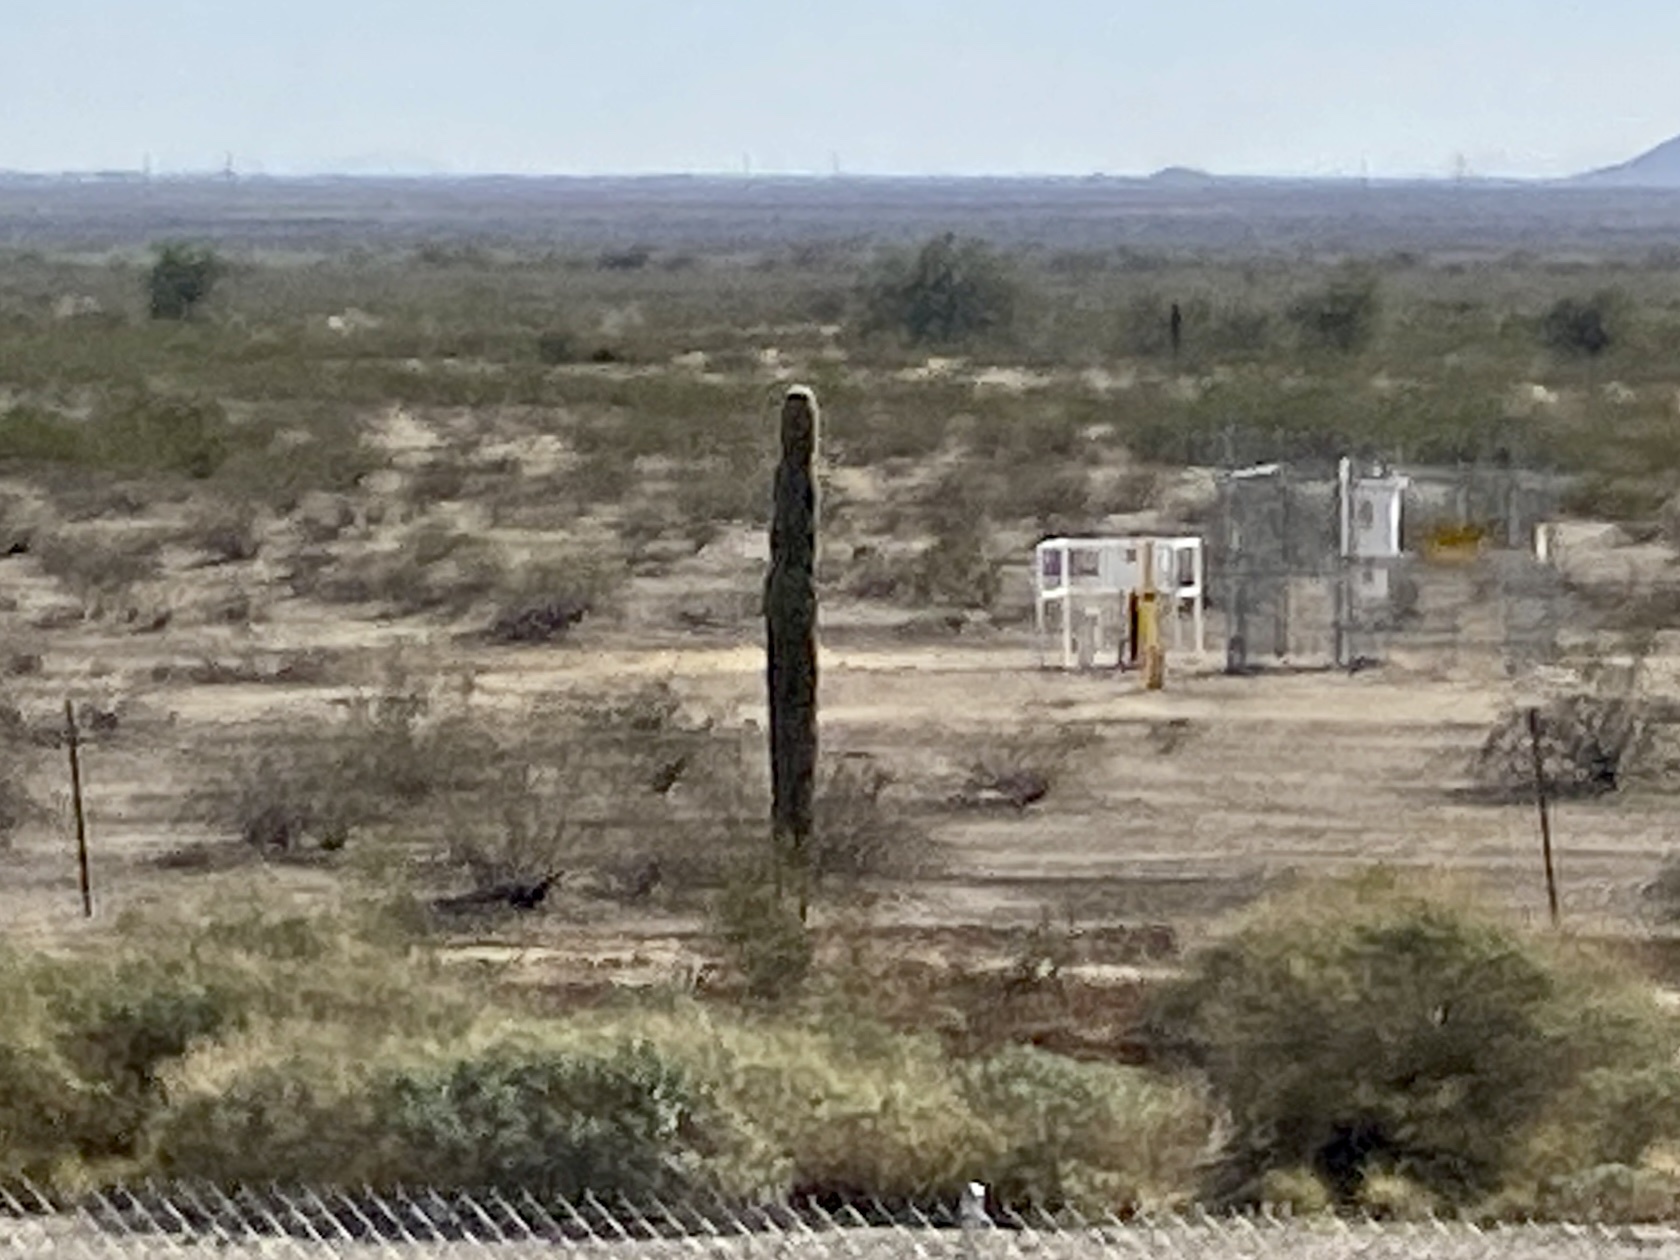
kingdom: Plantae
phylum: Tracheophyta
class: Magnoliopsida
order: Caryophyllales
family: Cactaceae
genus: Carnegiea
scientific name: Carnegiea gigantea
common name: Saguaro
